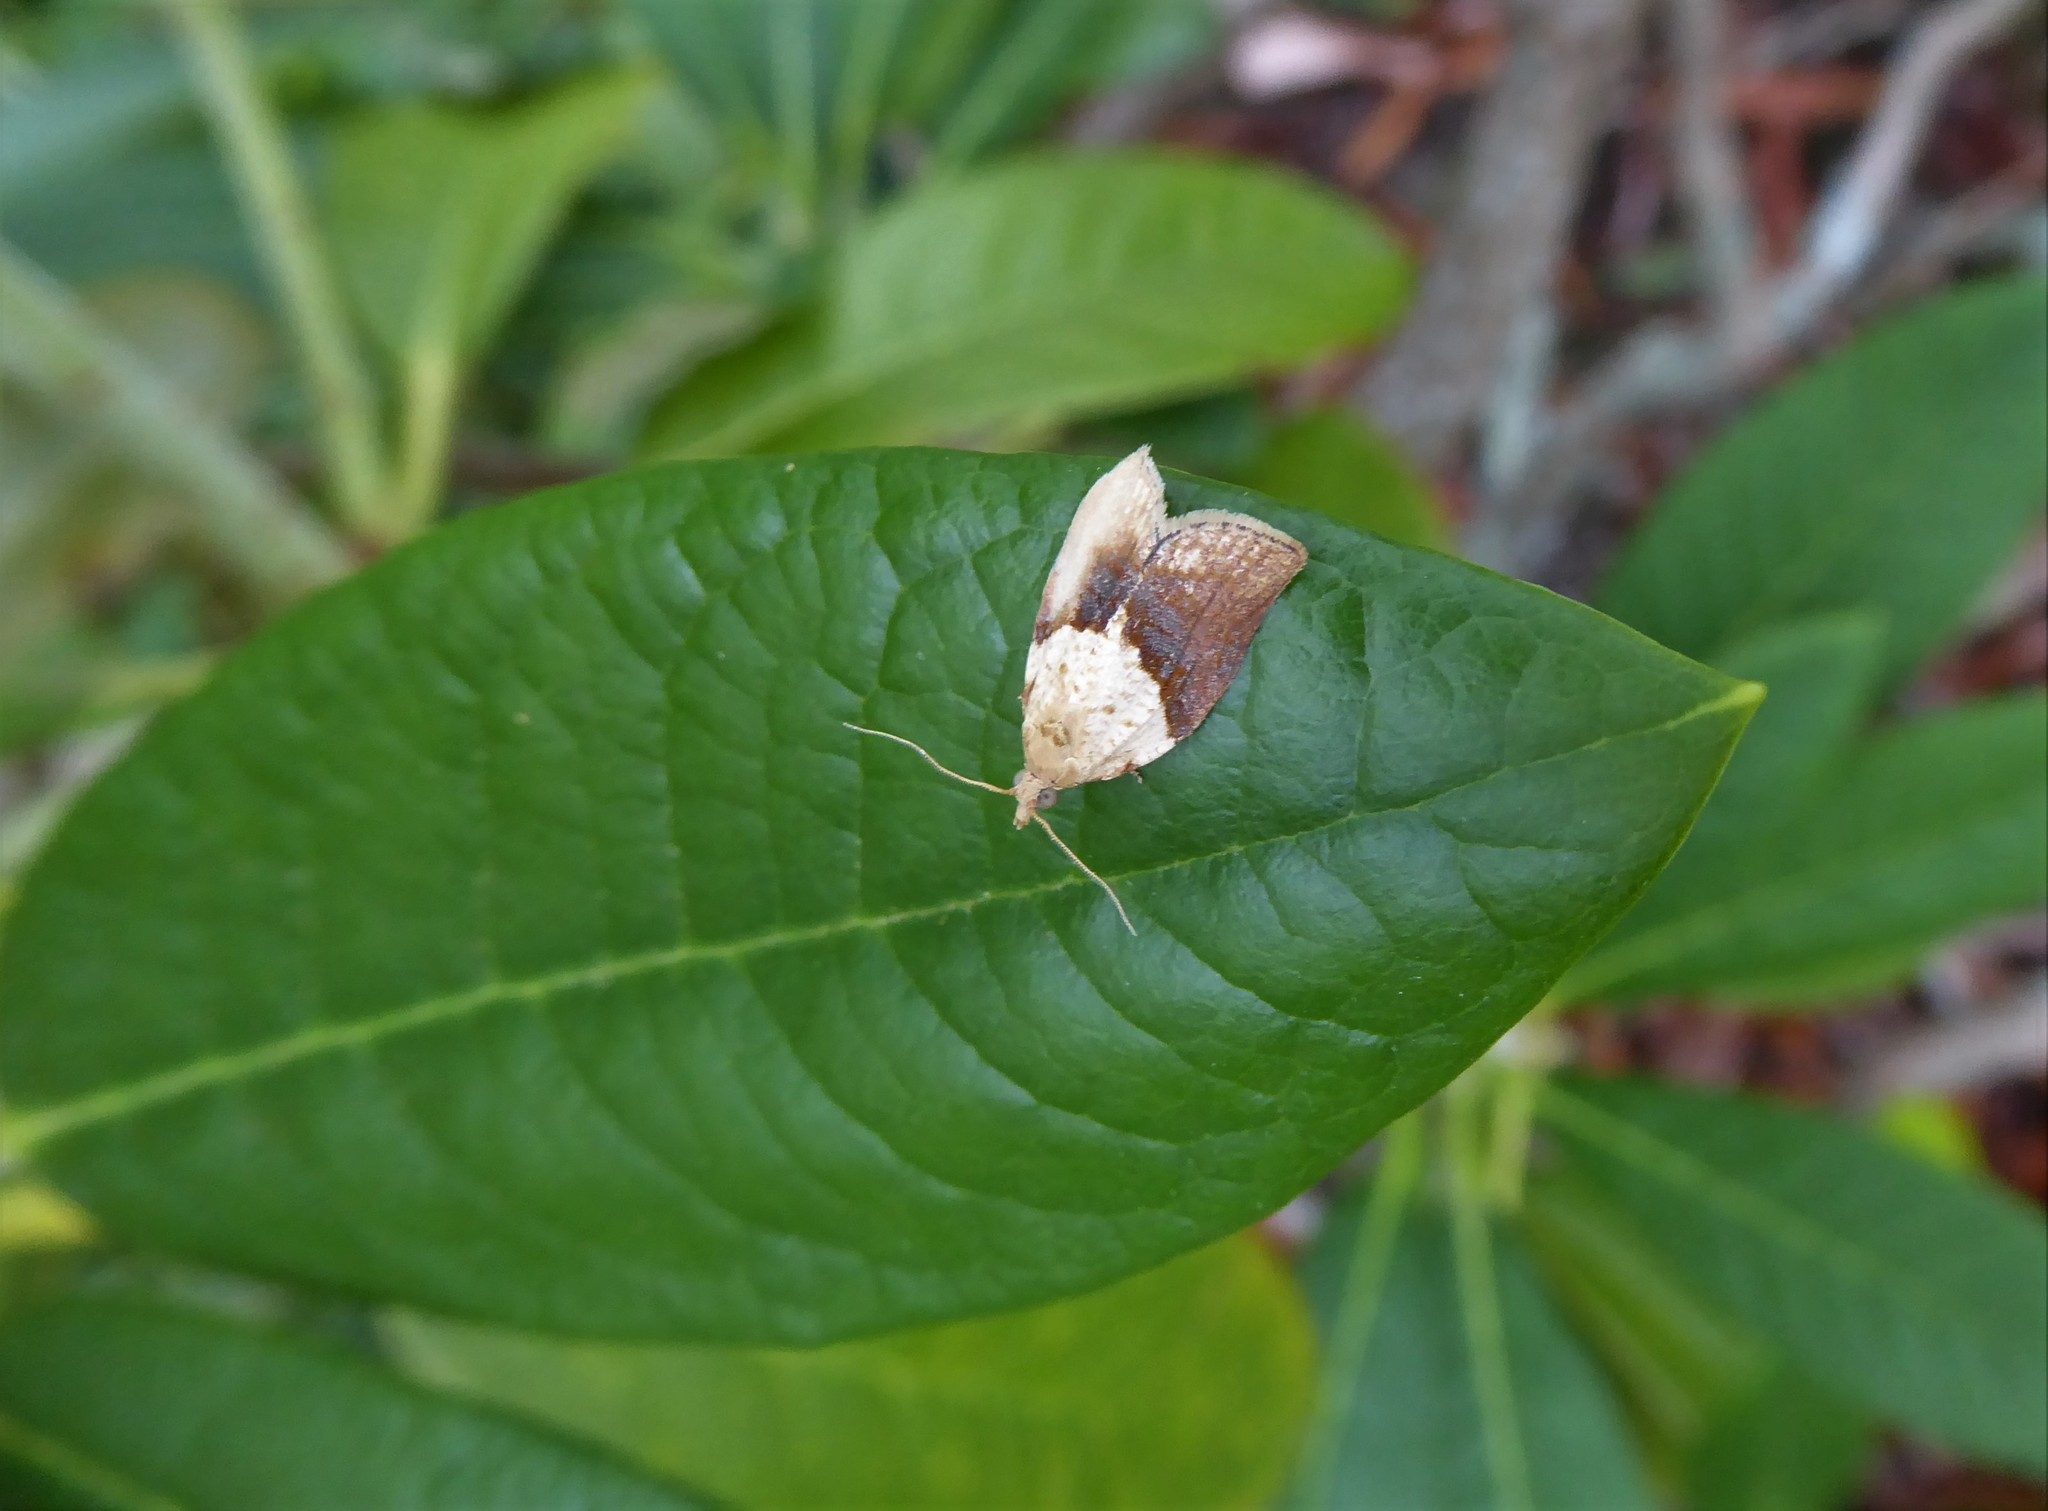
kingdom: Animalia
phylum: Arthropoda
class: Insecta
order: Lepidoptera
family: Tortricidae
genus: Epiphyas
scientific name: Epiphyas postvittana
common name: Light brown apple moth
